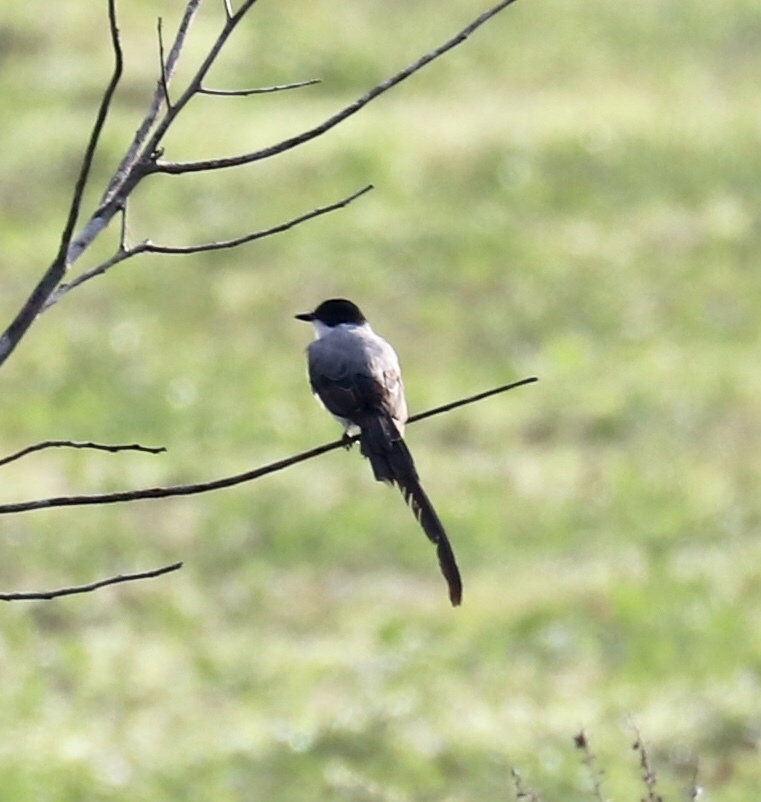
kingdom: Animalia
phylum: Chordata
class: Aves
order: Passeriformes
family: Tyrannidae
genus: Tyrannus
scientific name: Tyrannus savana
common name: Fork-tailed flycatcher
